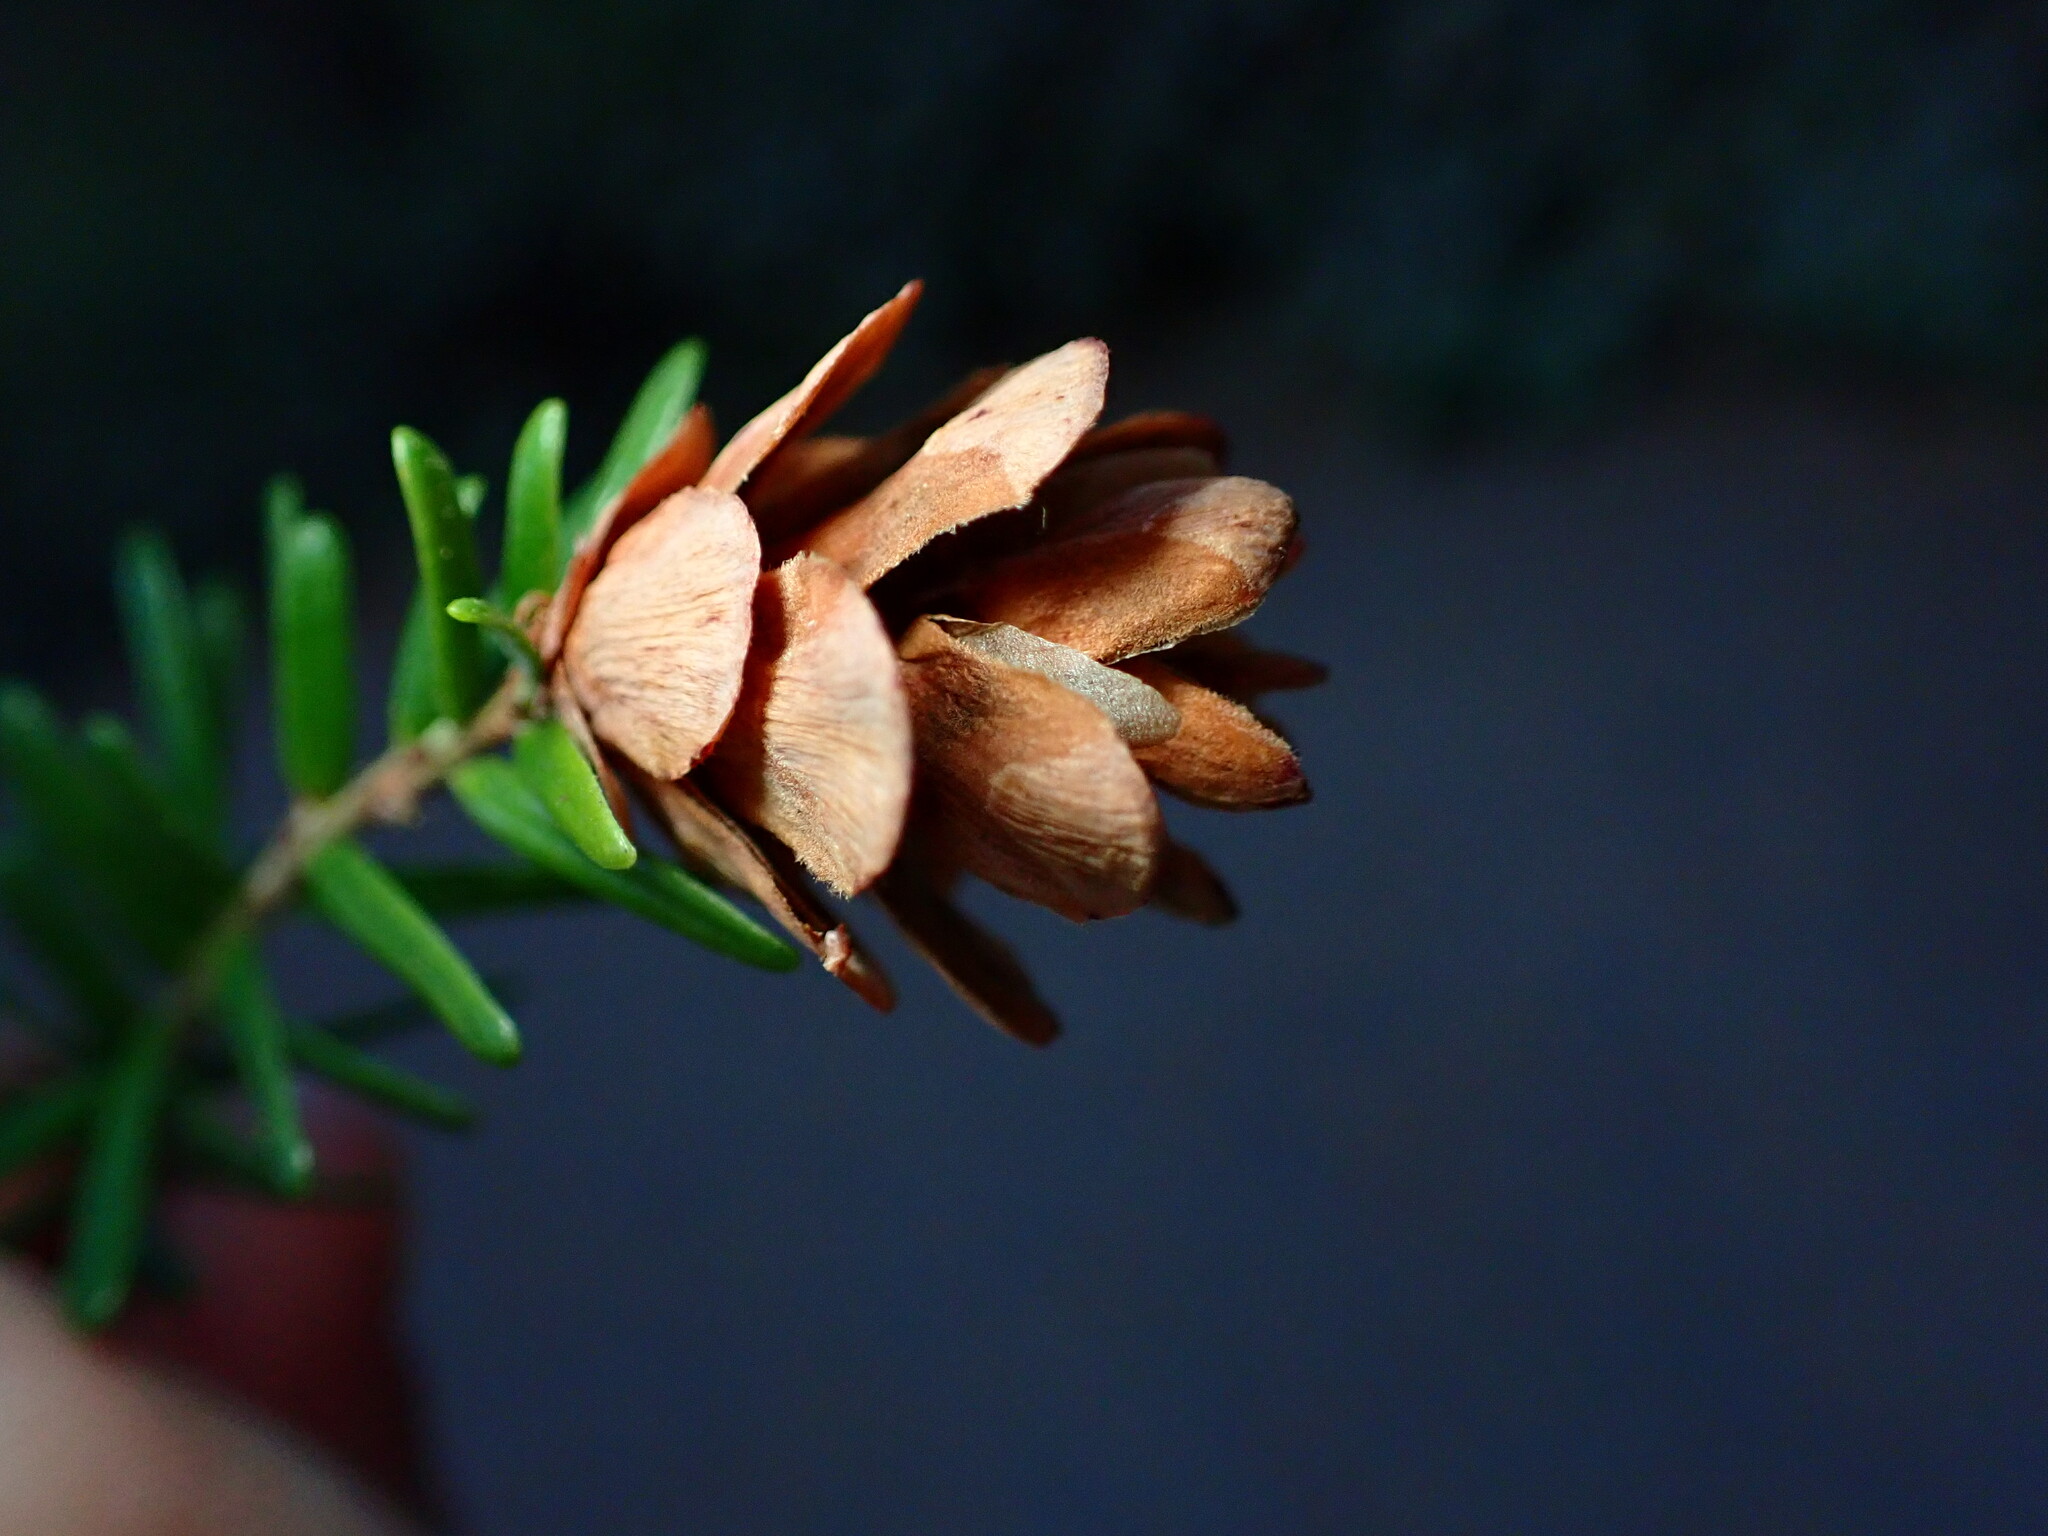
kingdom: Plantae
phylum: Tracheophyta
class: Pinopsida
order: Pinales
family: Pinaceae
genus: Tsuga
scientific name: Tsuga heterophylla
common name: Western hemlock
